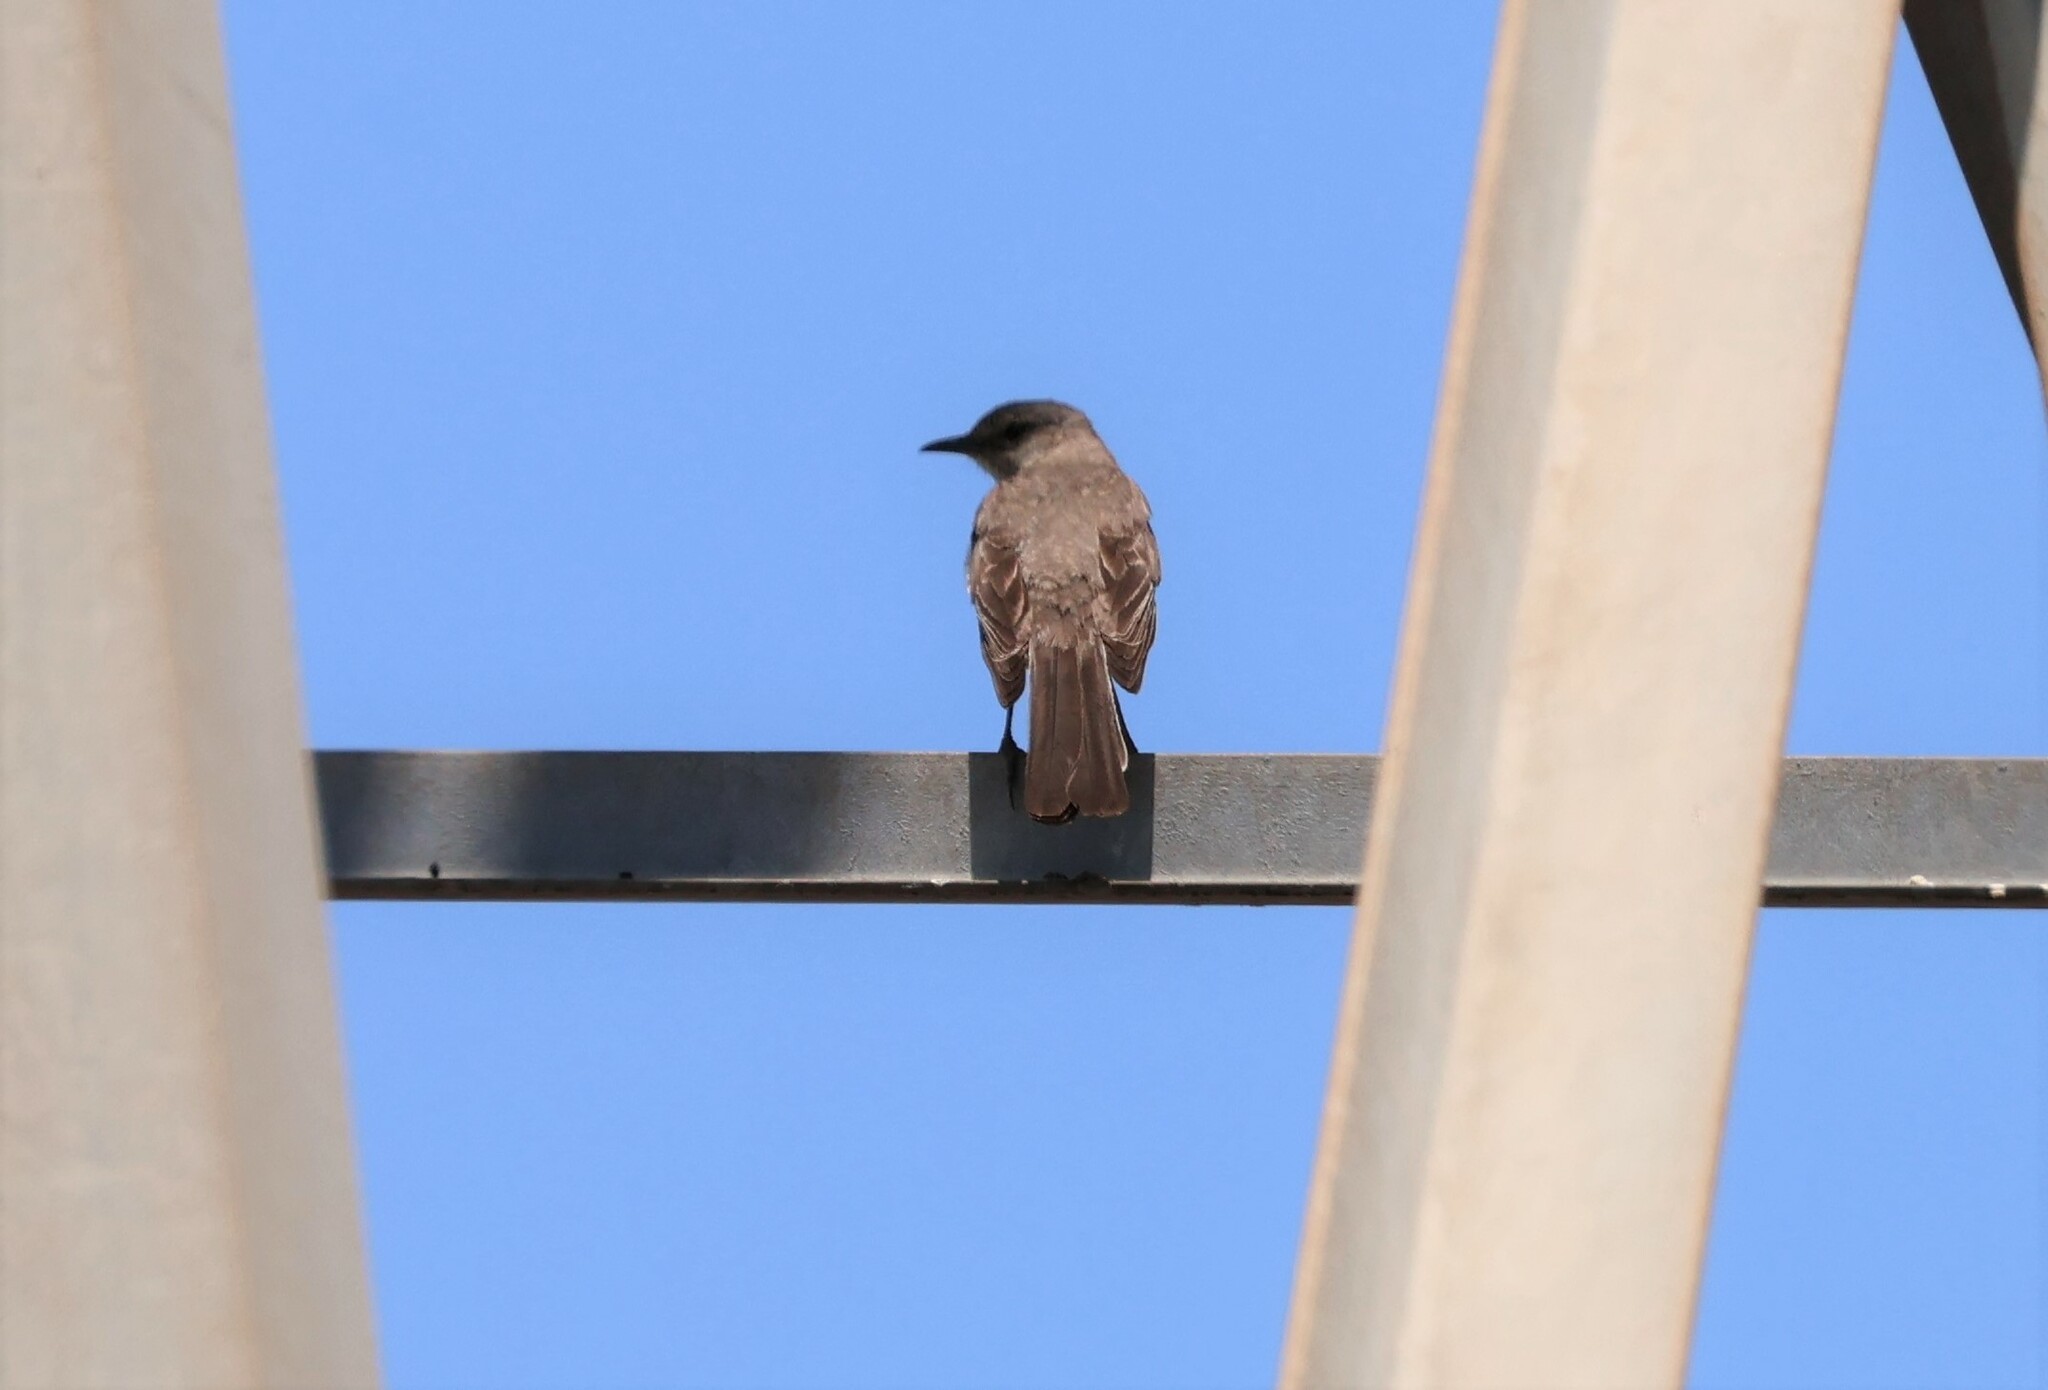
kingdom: Animalia
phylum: Chordata
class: Aves
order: Passeriformes
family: Mimidae
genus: Mimus
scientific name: Mimus polyglottos
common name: Northern mockingbird
